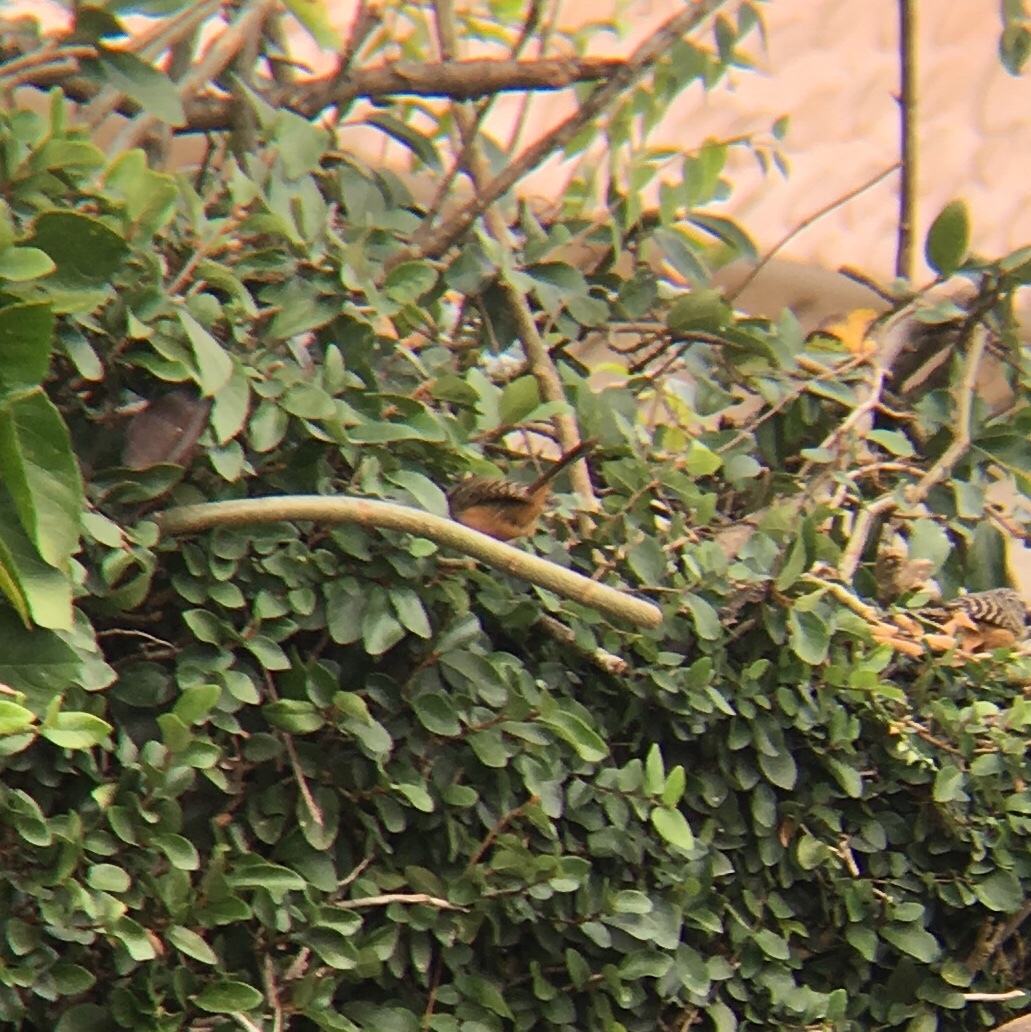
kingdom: Animalia
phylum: Chordata
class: Aves
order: Passeriformes
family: Troglodytidae
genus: Campylorhynchus
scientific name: Campylorhynchus zonatus
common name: Band-backed wren
